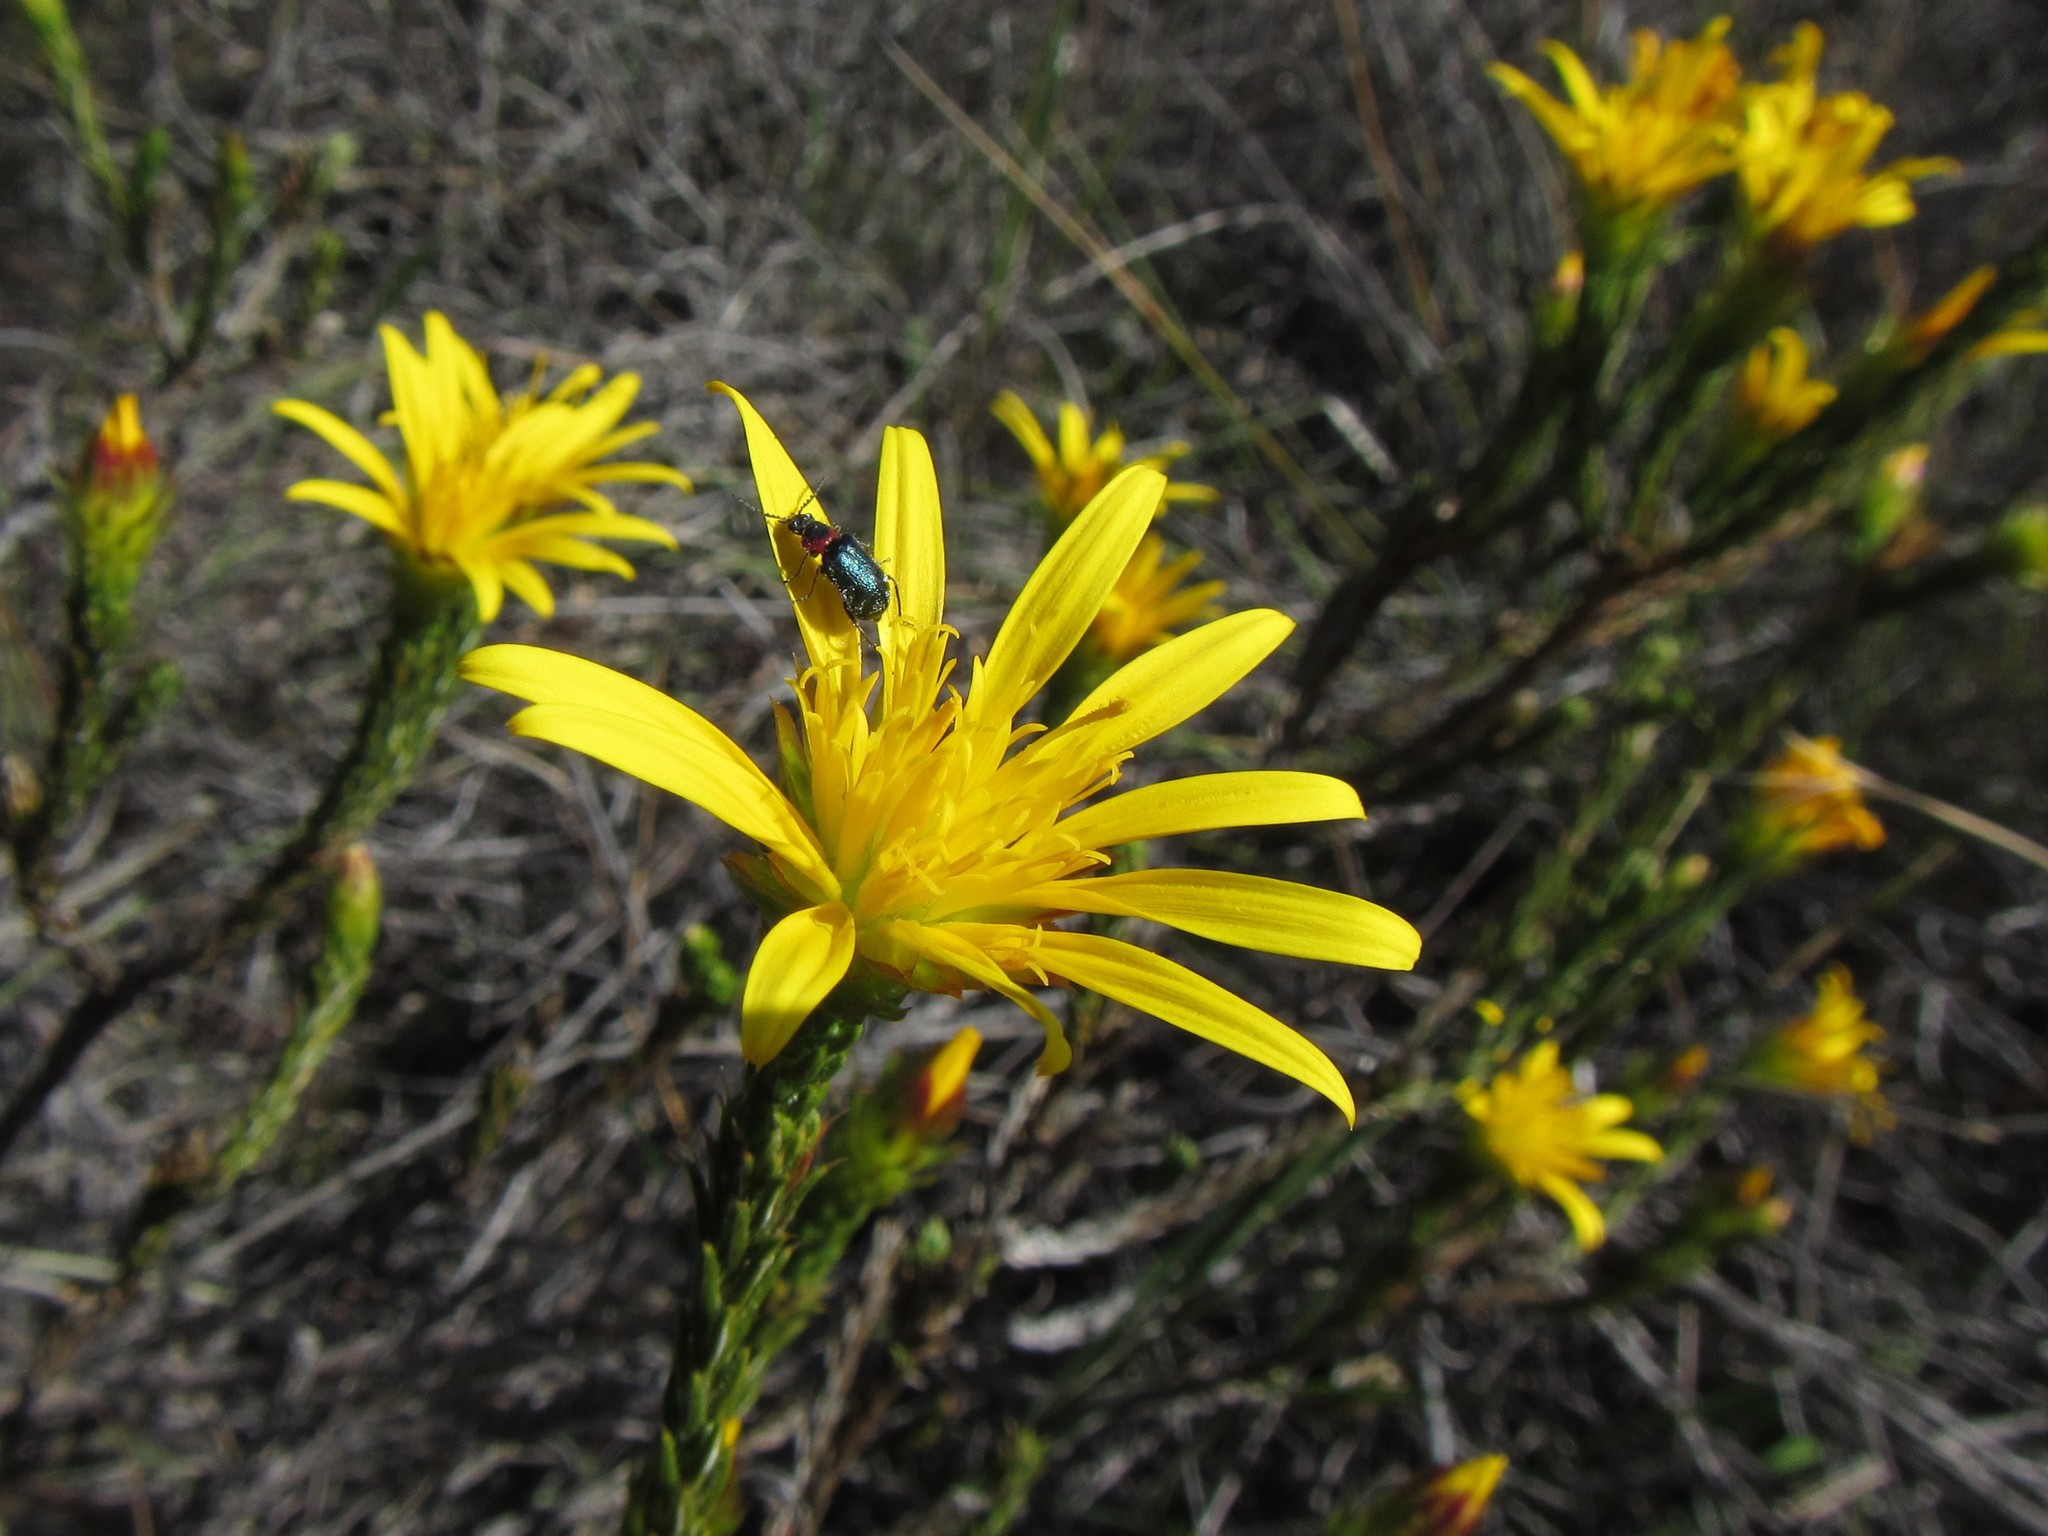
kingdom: Plantae
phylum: Tracheophyta
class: Magnoliopsida
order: Asterales
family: Asteraceae
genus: Cullumia
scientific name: Cullumia sulcata
